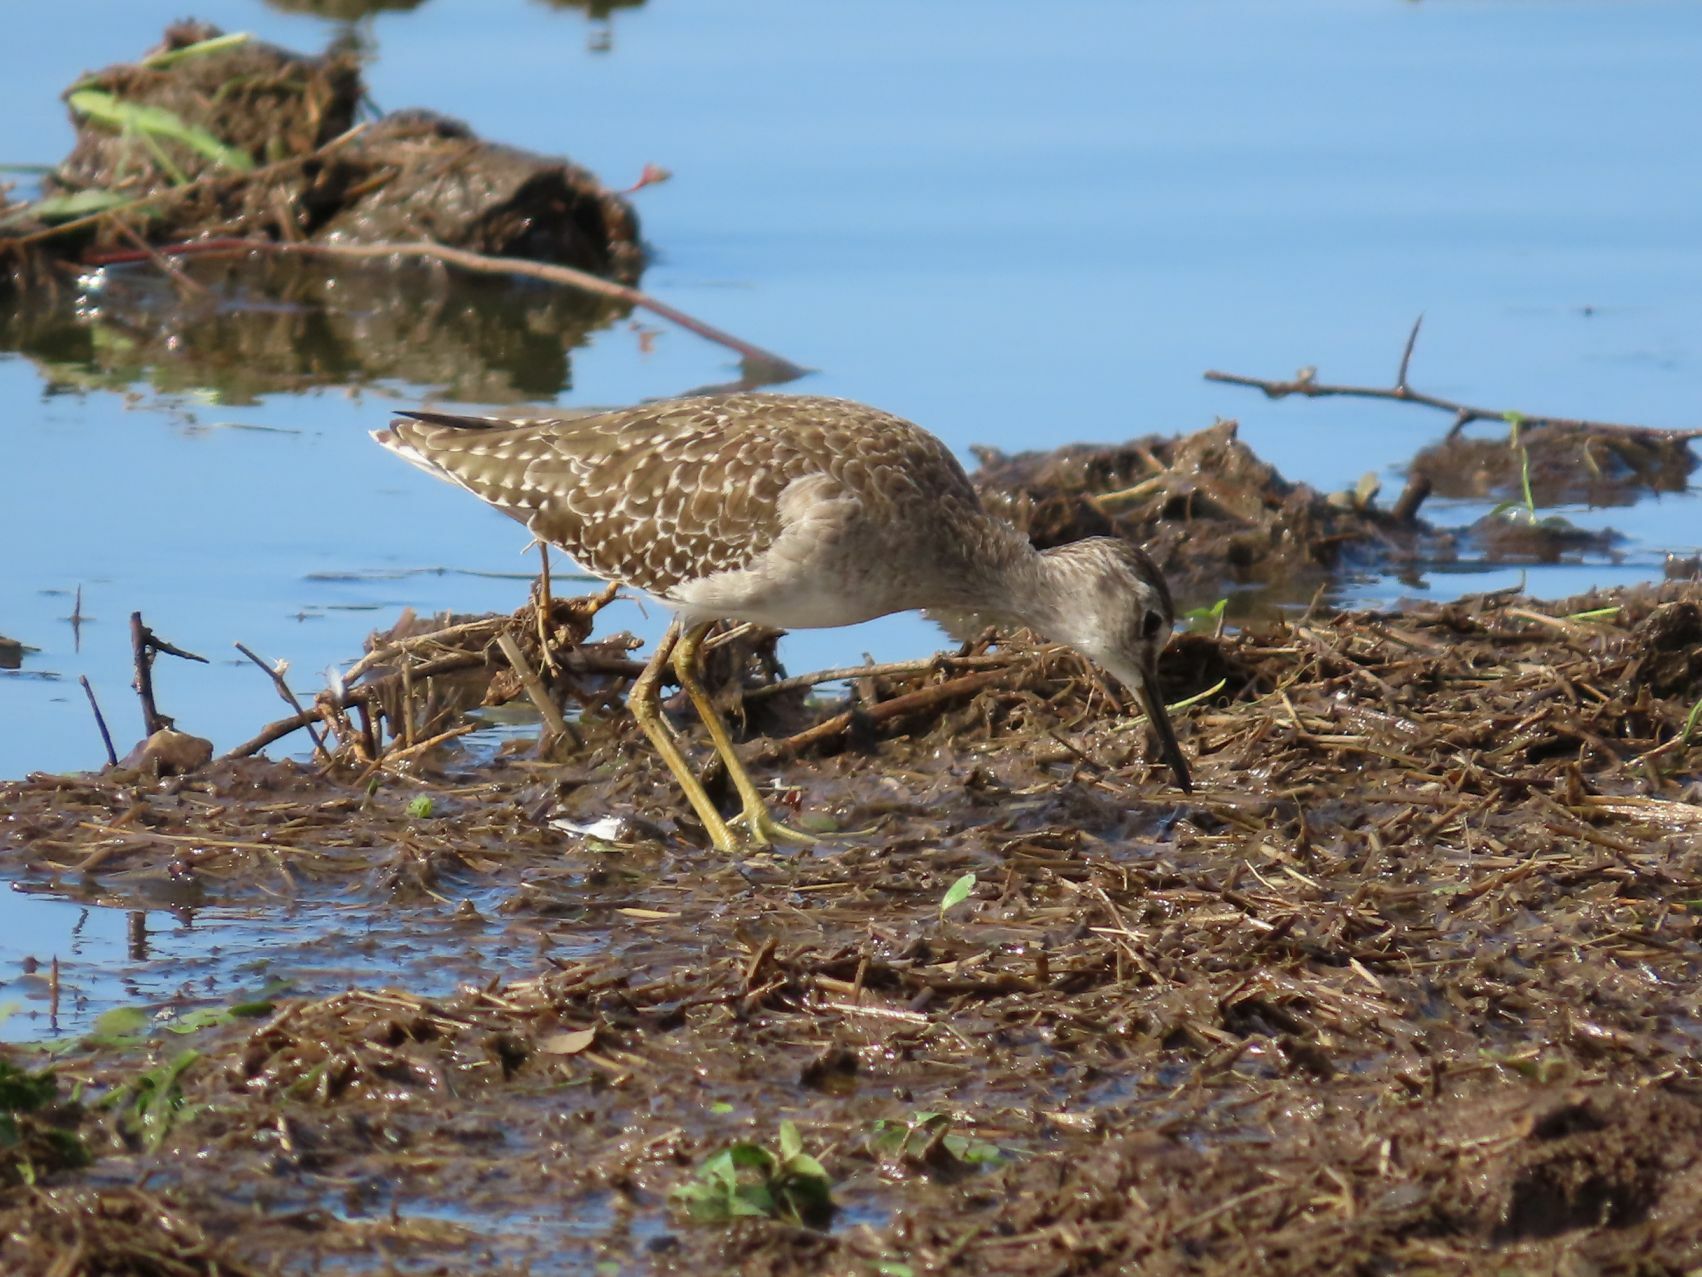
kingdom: Animalia
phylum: Chordata
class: Aves
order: Charadriiformes
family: Scolopacidae
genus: Tringa
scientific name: Tringa glareola
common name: Wood sandpiper
